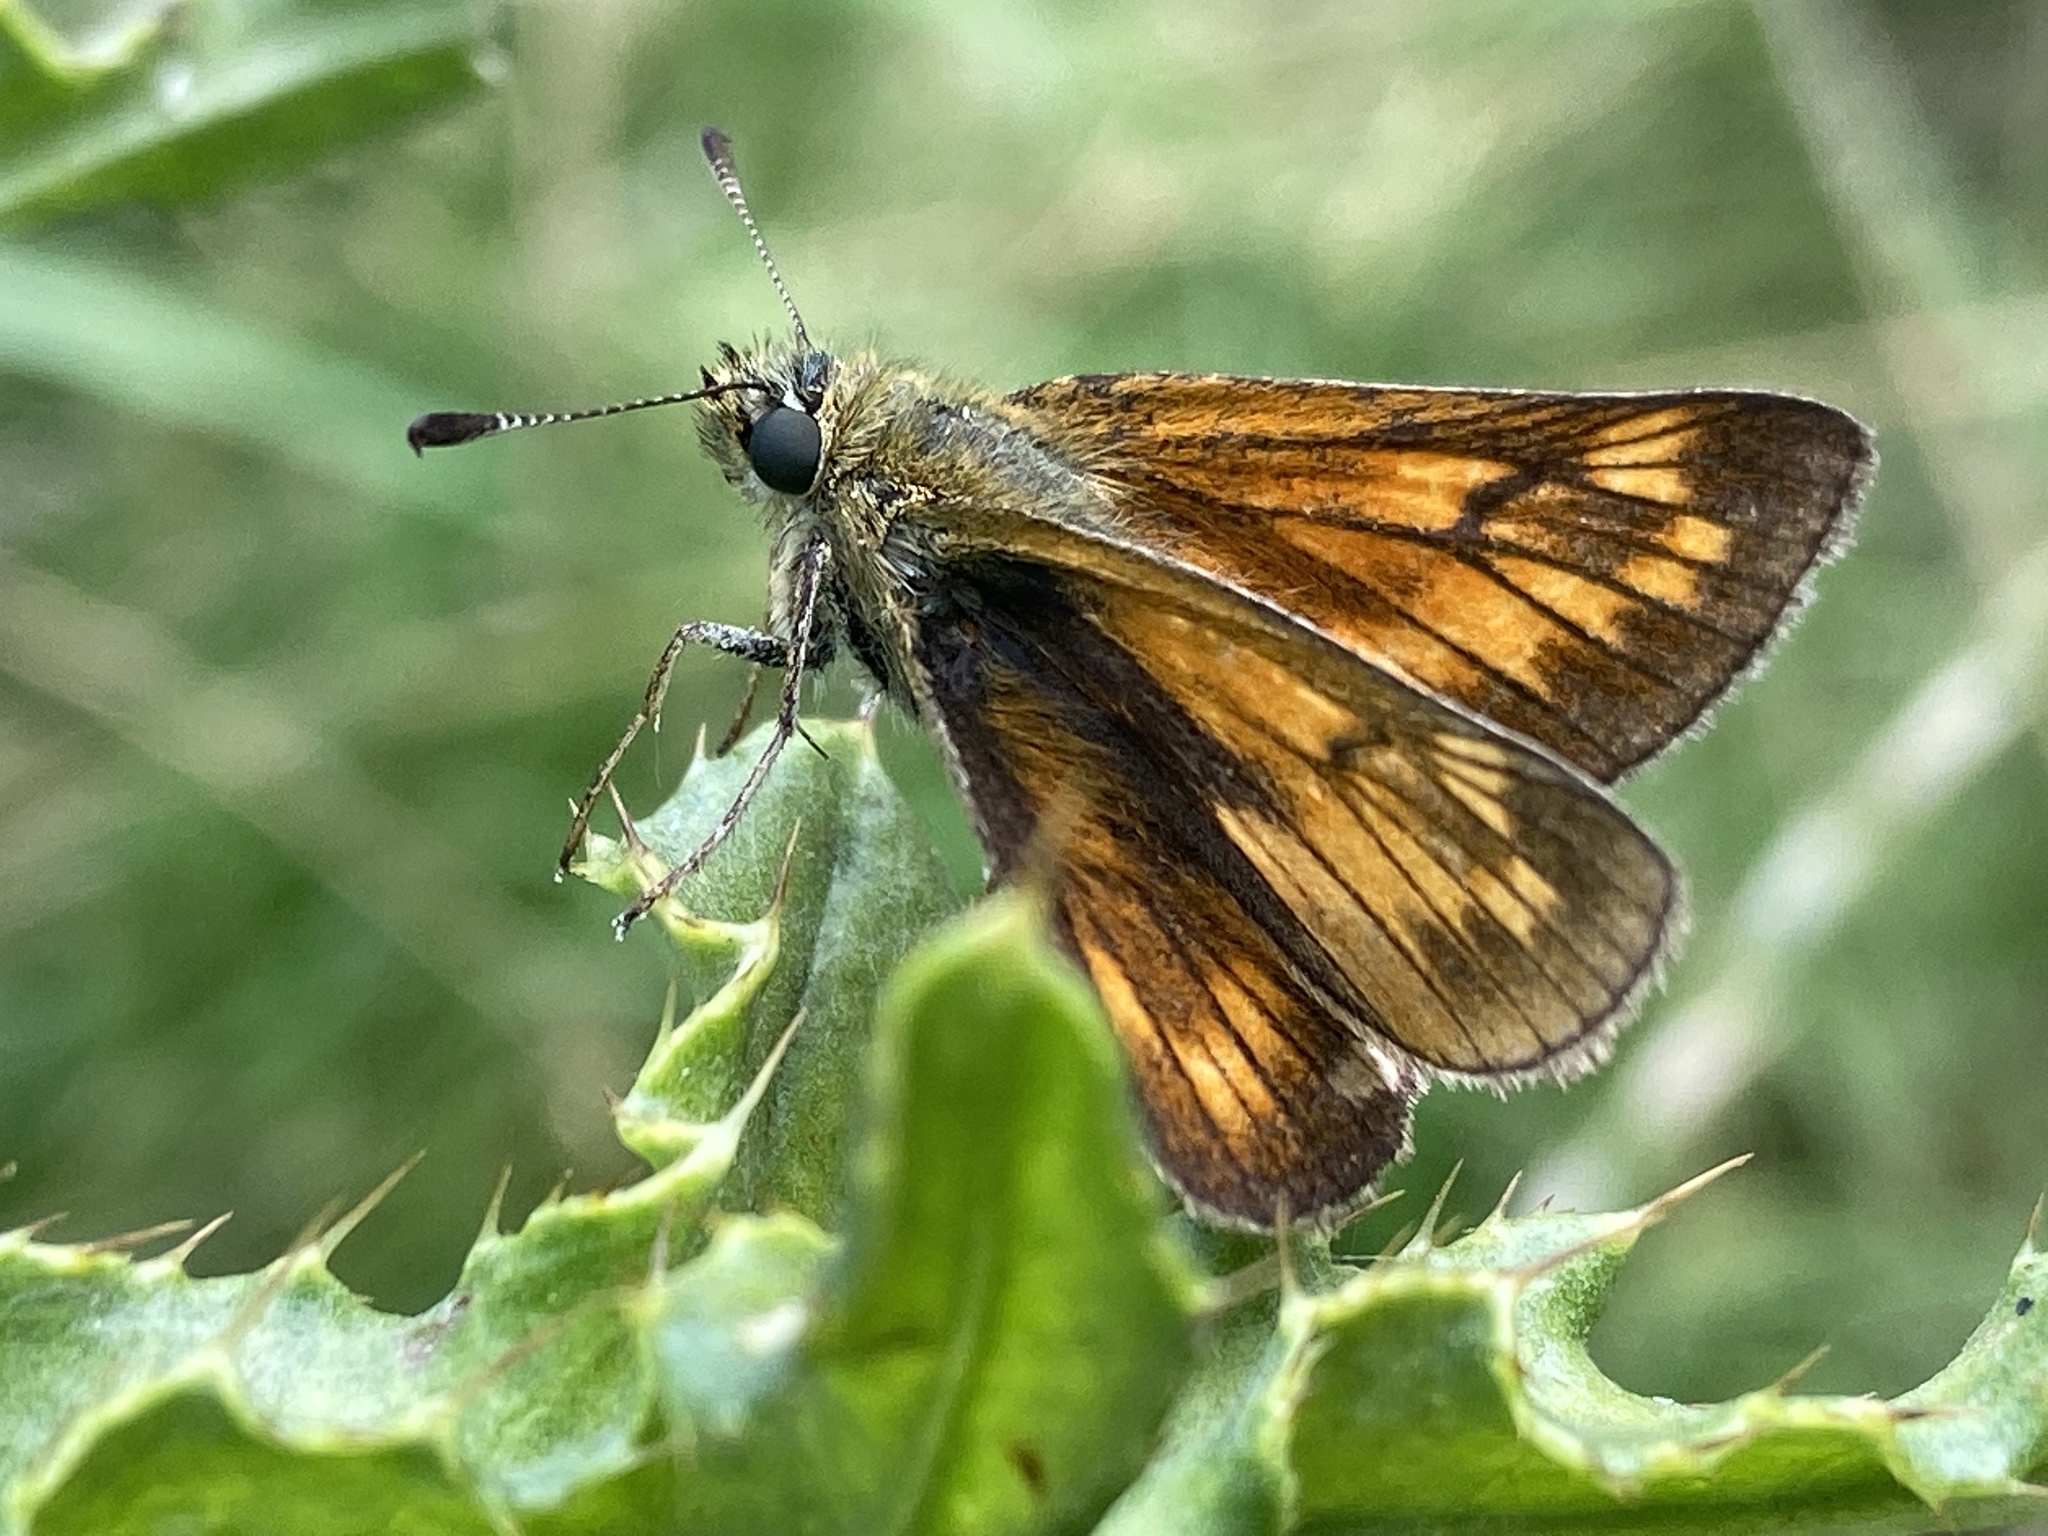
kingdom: Animalia
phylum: Arthropoda
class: Insecta
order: Lepidoptera
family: Hesperiidae
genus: Ochlodes
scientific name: Ochlodes venata
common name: Large skipper
